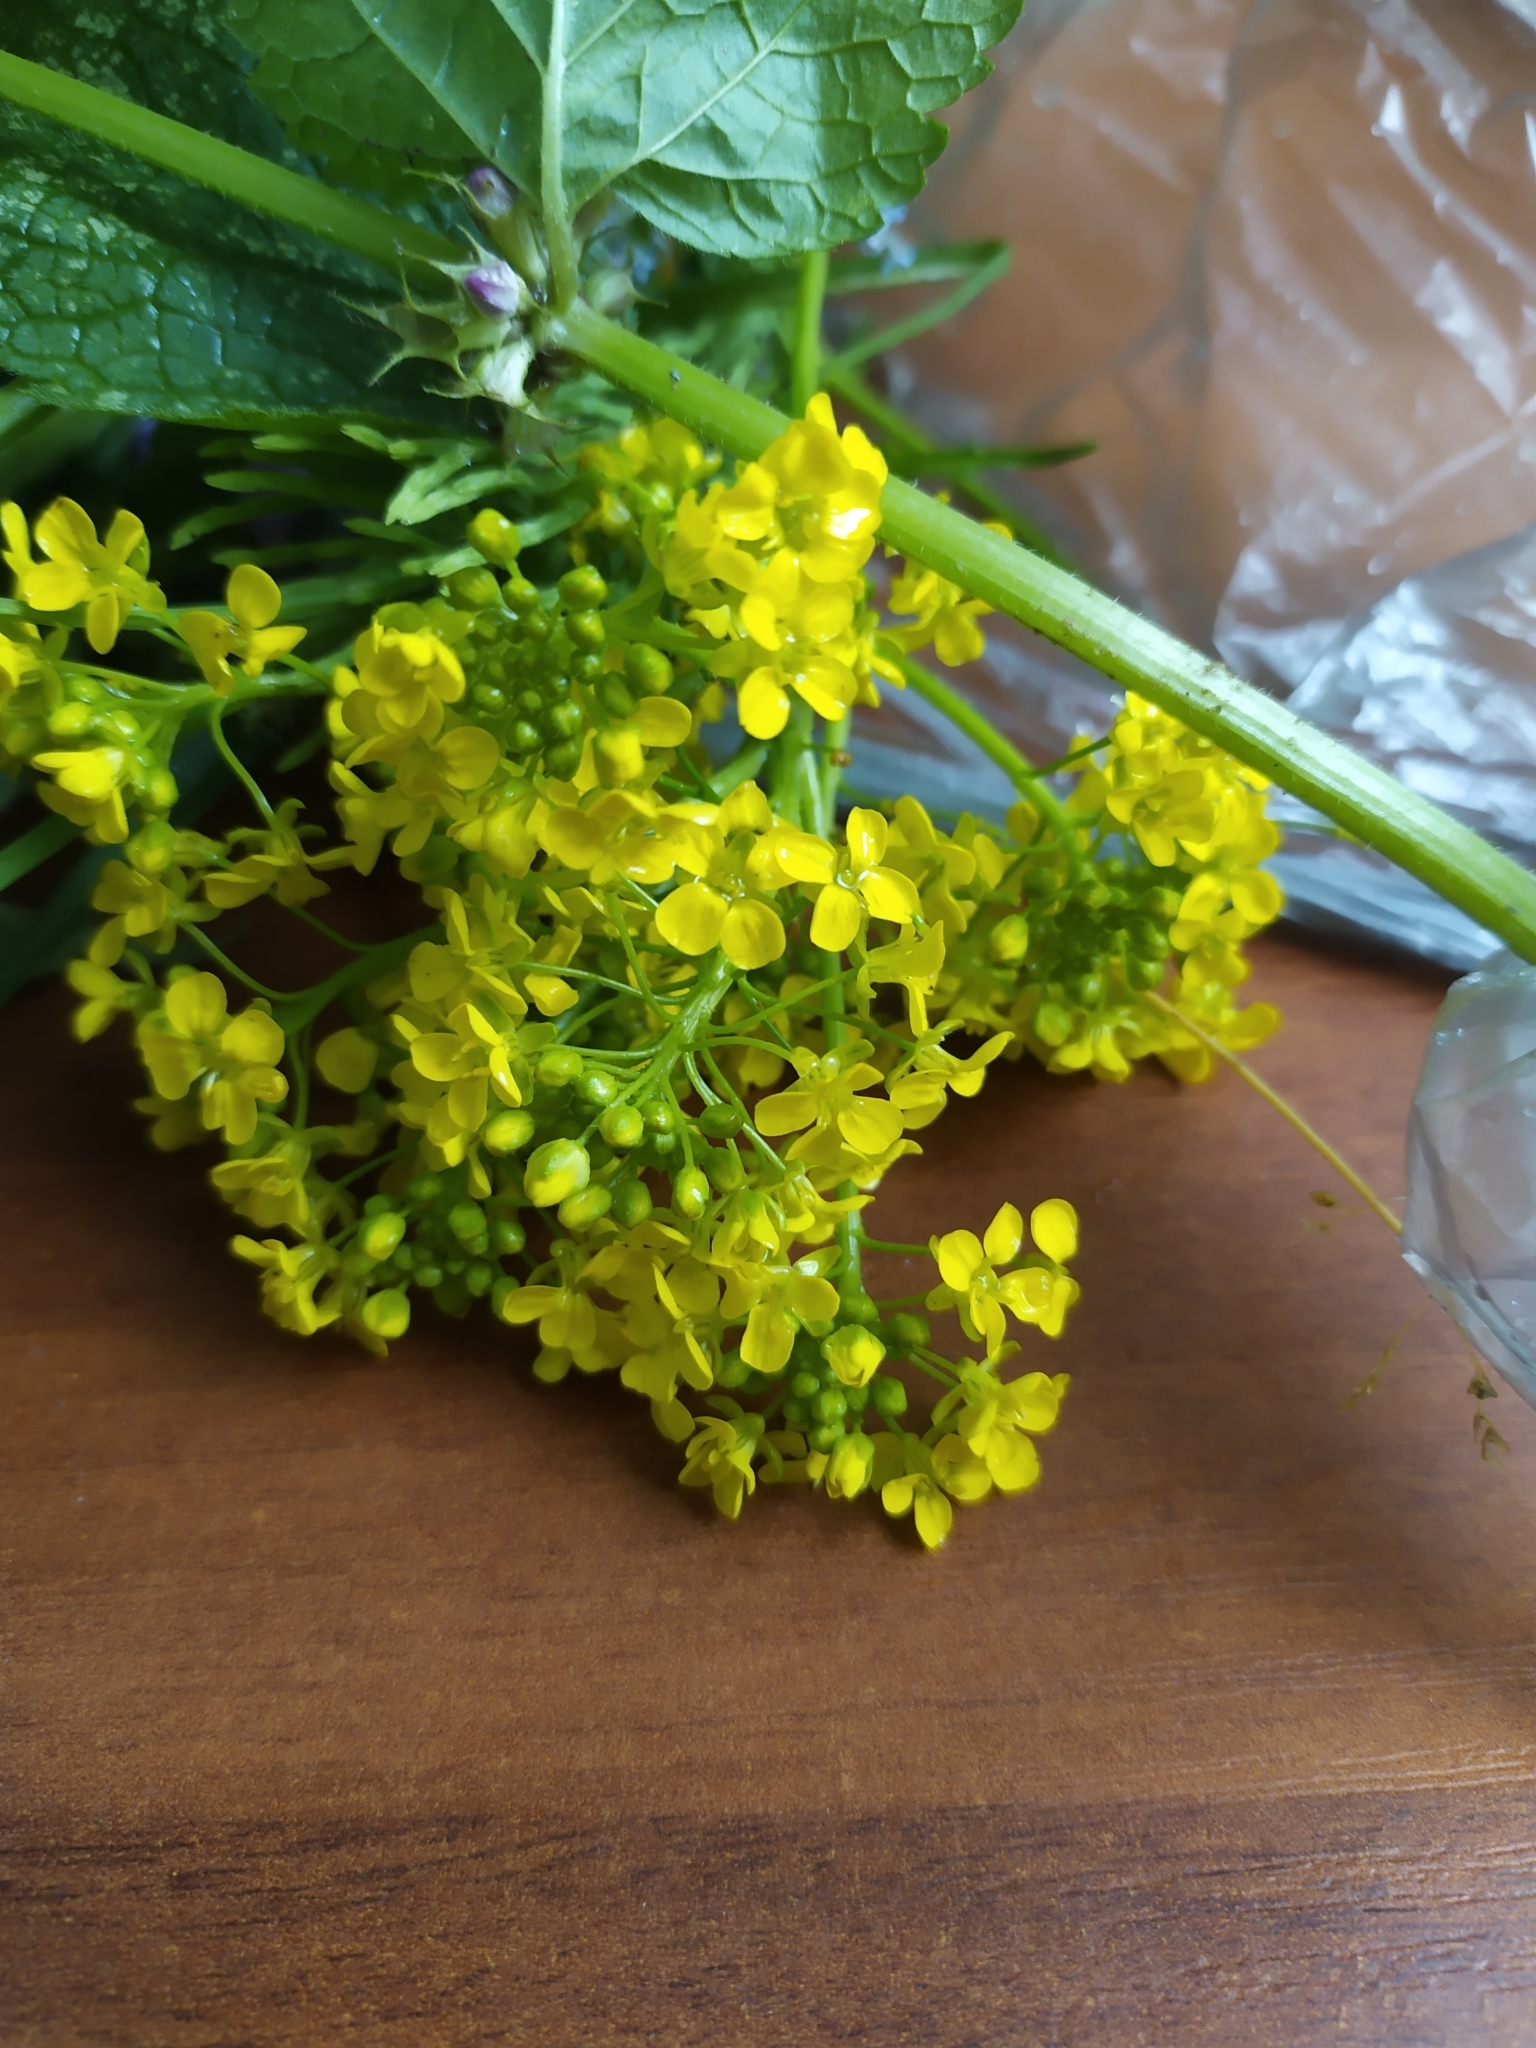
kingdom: Plantae
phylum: Tracheophyta
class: Magnoliopsida
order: Brassicales
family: Brassicaceae
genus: Bunias
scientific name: Bunias orientalis
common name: Warty-cabbage
